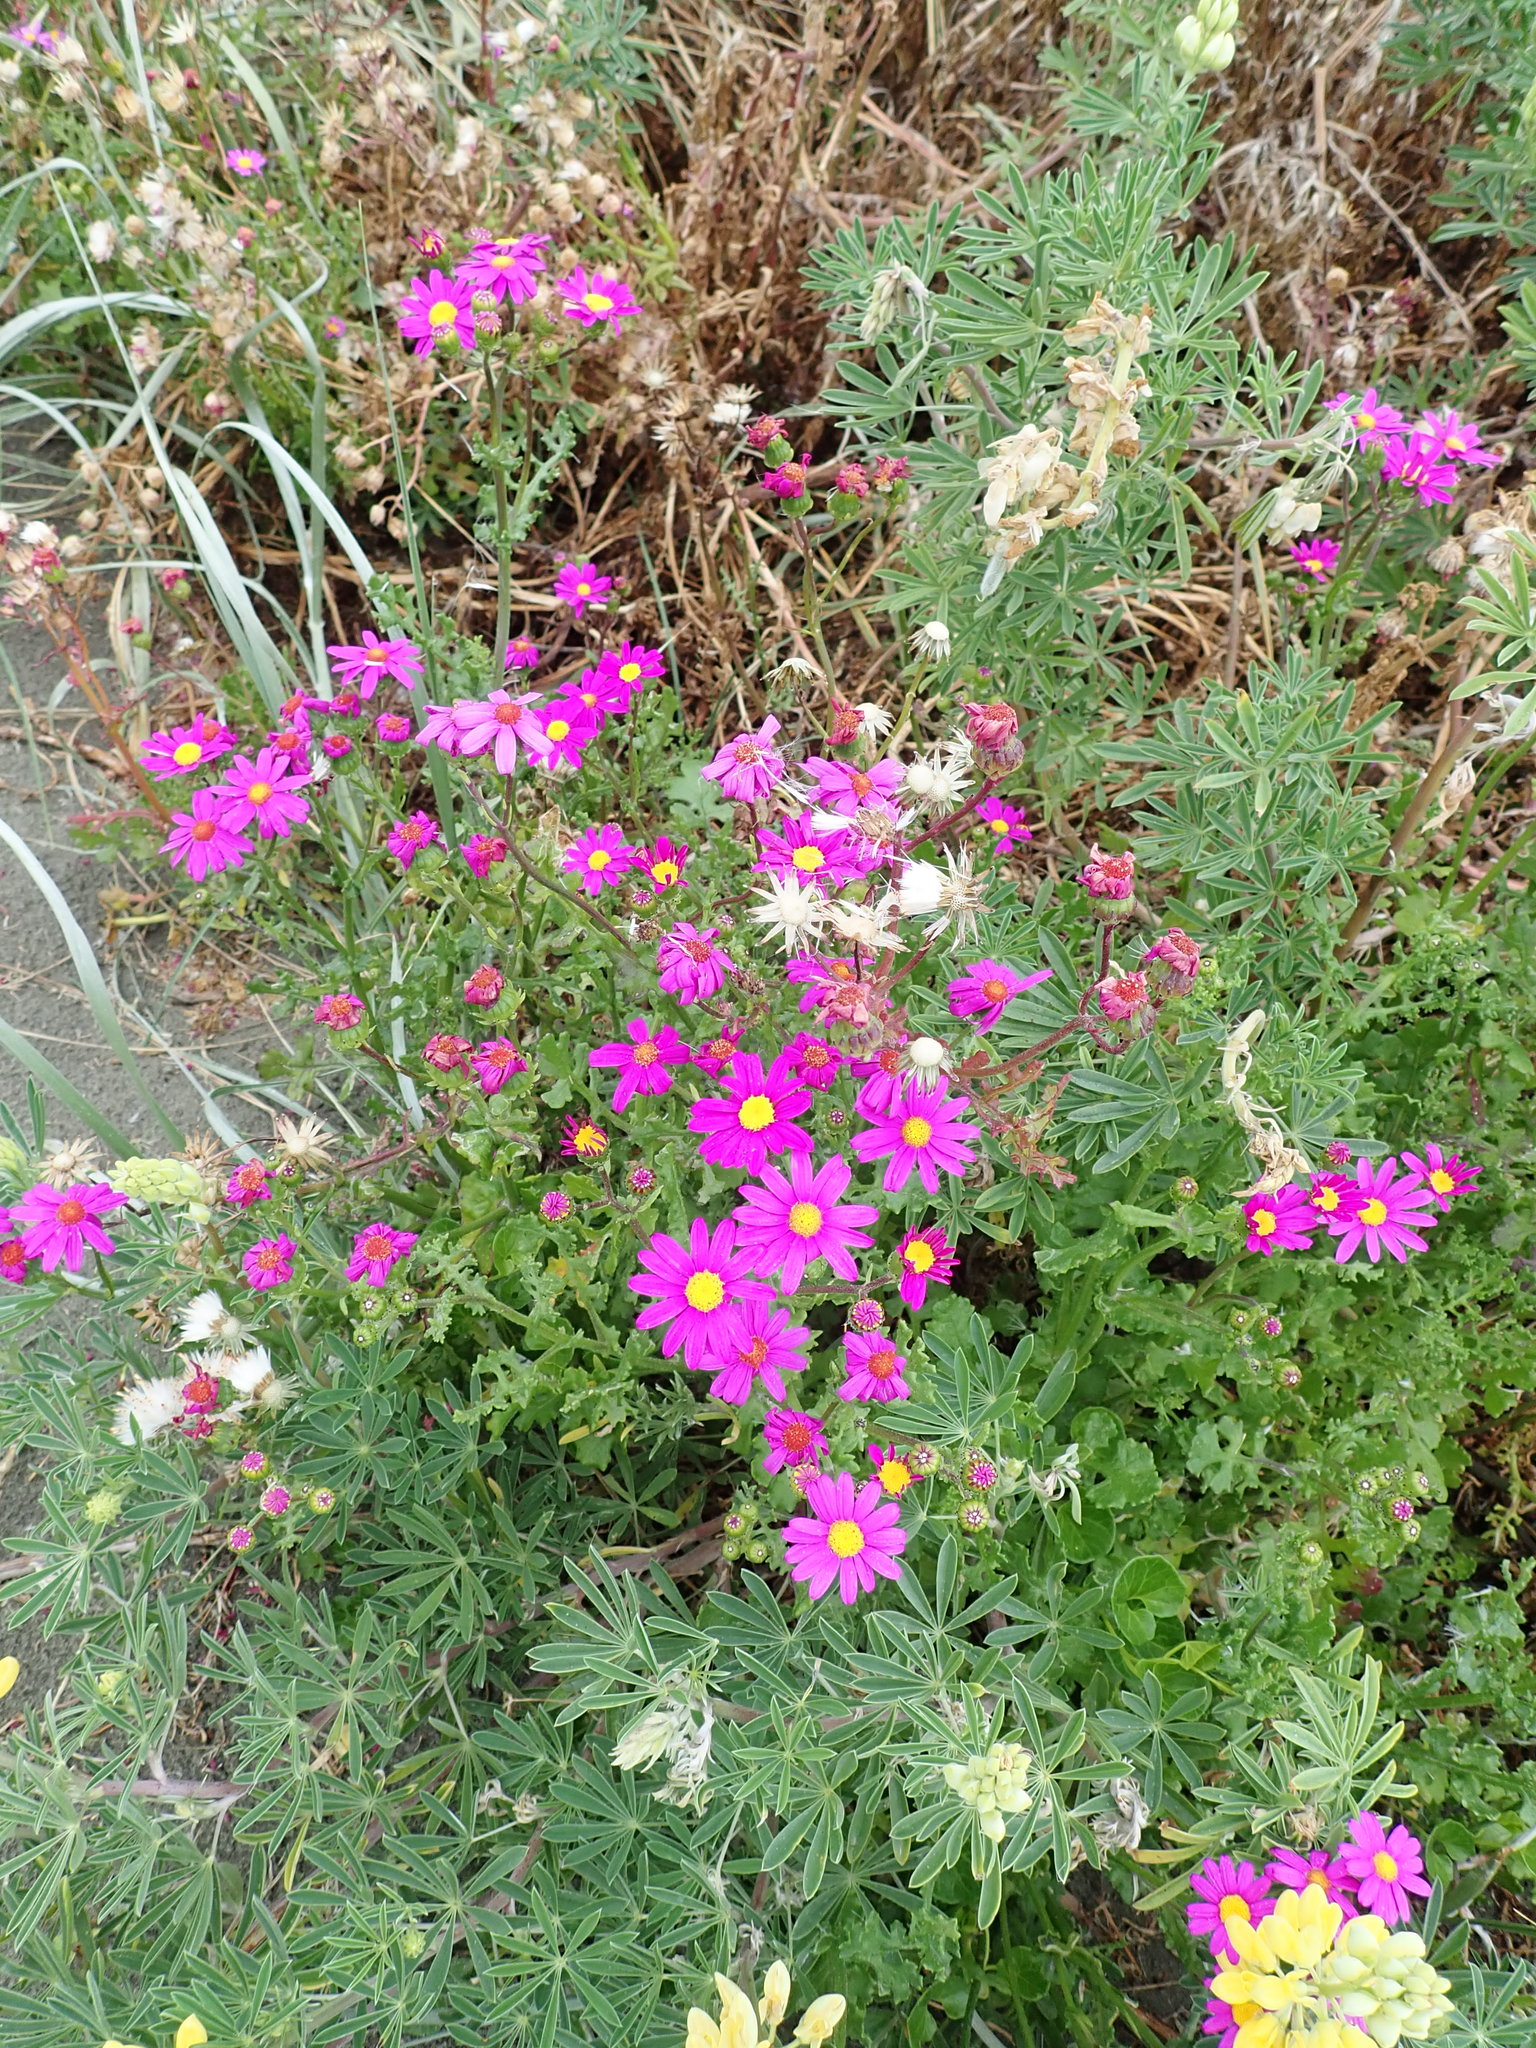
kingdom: Plantae
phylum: Tracheophyta
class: Magnoliopsida
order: Asterales
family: Asteraceae
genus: Senecio
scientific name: Senecio elegans
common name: Purple groundsel
